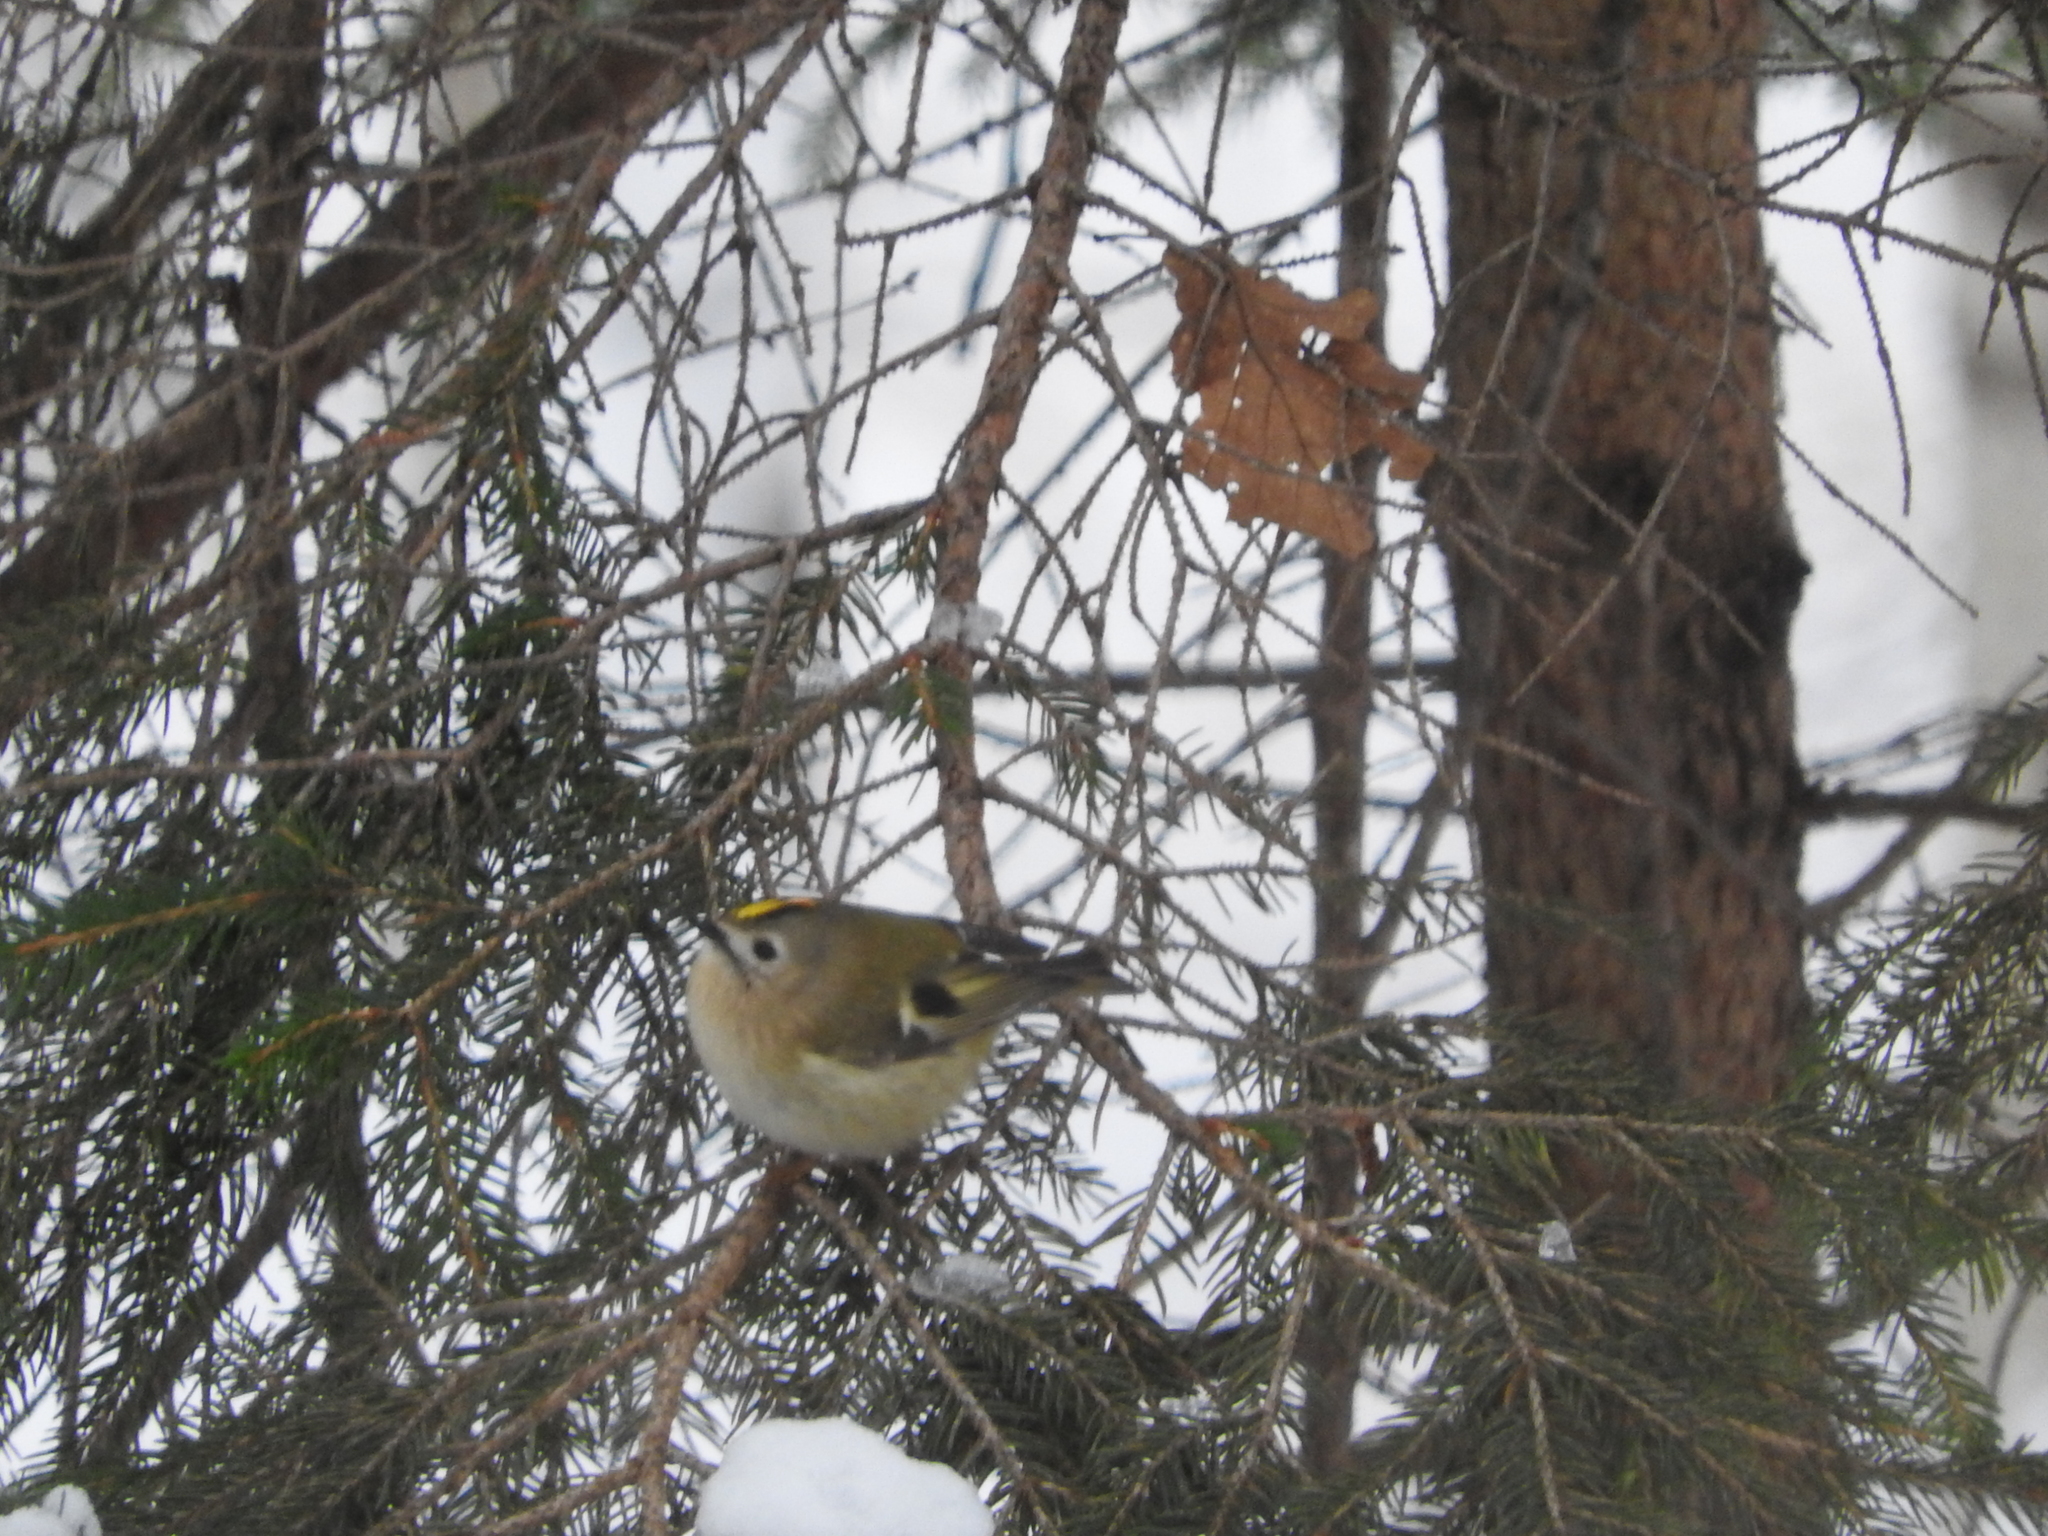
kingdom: Animalia
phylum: Chordata
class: Aves
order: Passeriformes
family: Regulidae
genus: Regulus
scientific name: Regulus regulus
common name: Goldcrest
